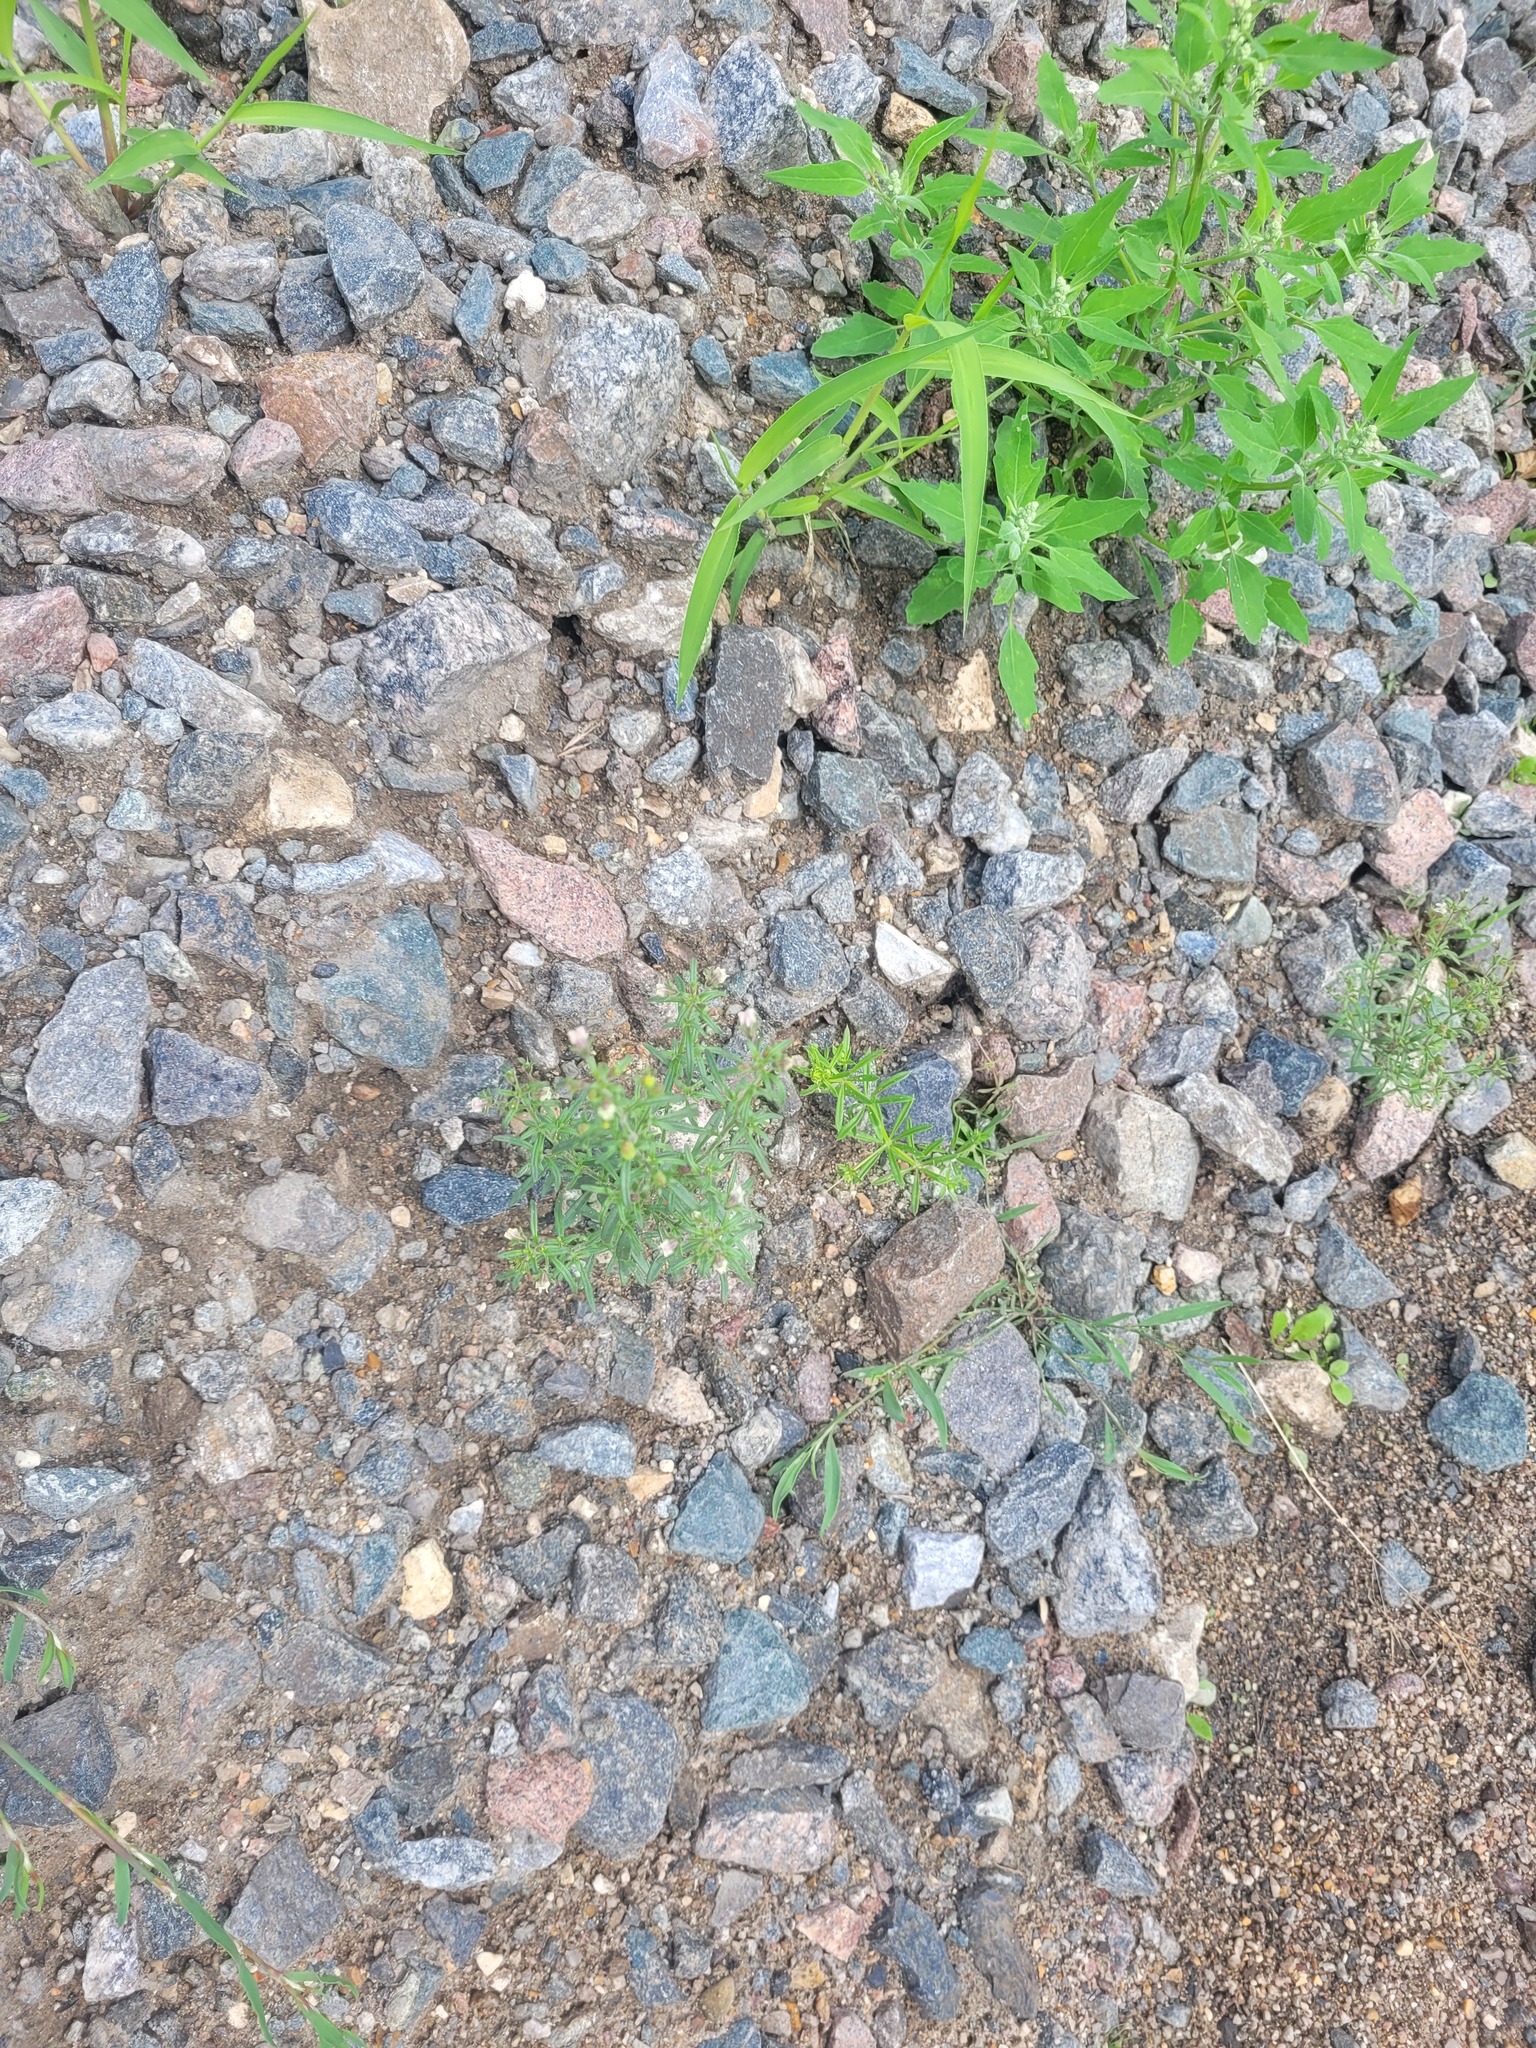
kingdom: Plantae
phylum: Tracheophyta
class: Magnoliopsida
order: Lamiales
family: Plantaginaceae
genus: Chaenorhinum
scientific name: Chaenorhinum minus
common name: Dwarf snapdragon
